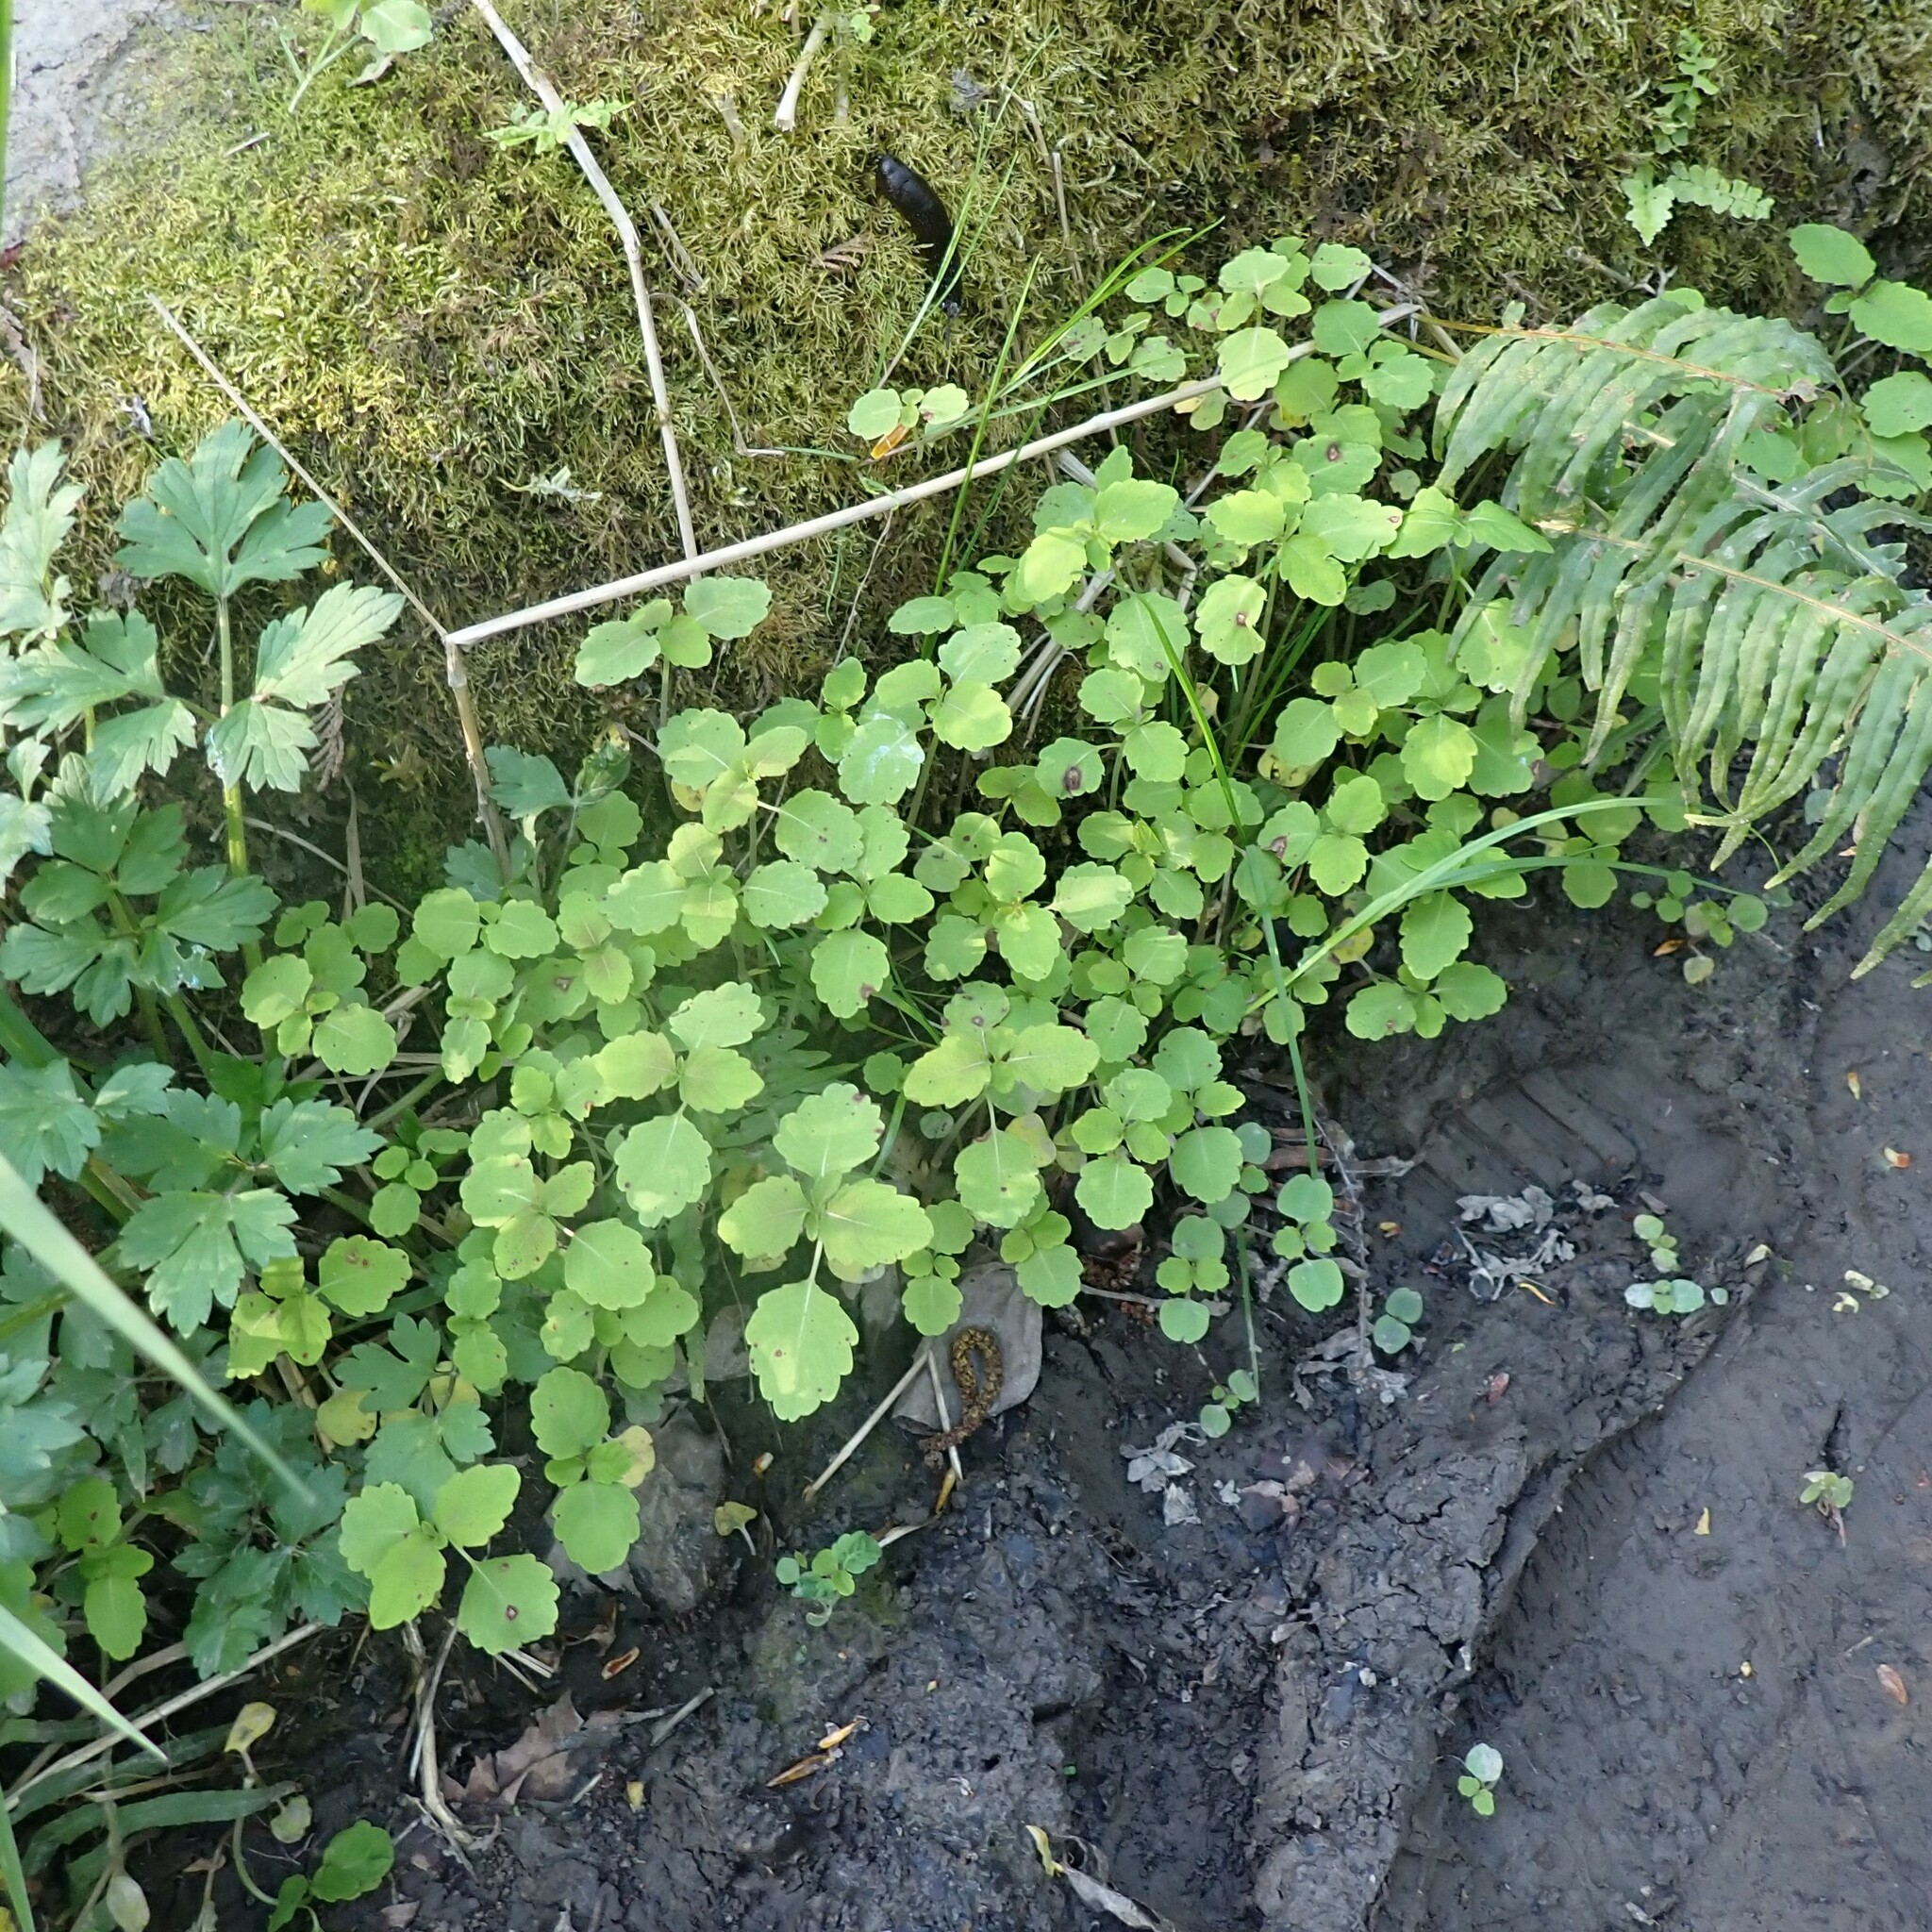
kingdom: Plantae
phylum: Tracheophyta
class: Magnoliopsida
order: Ericales
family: Balsaminaceae
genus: Impatiens
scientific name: Impatiens capensis
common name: Orange balsam
